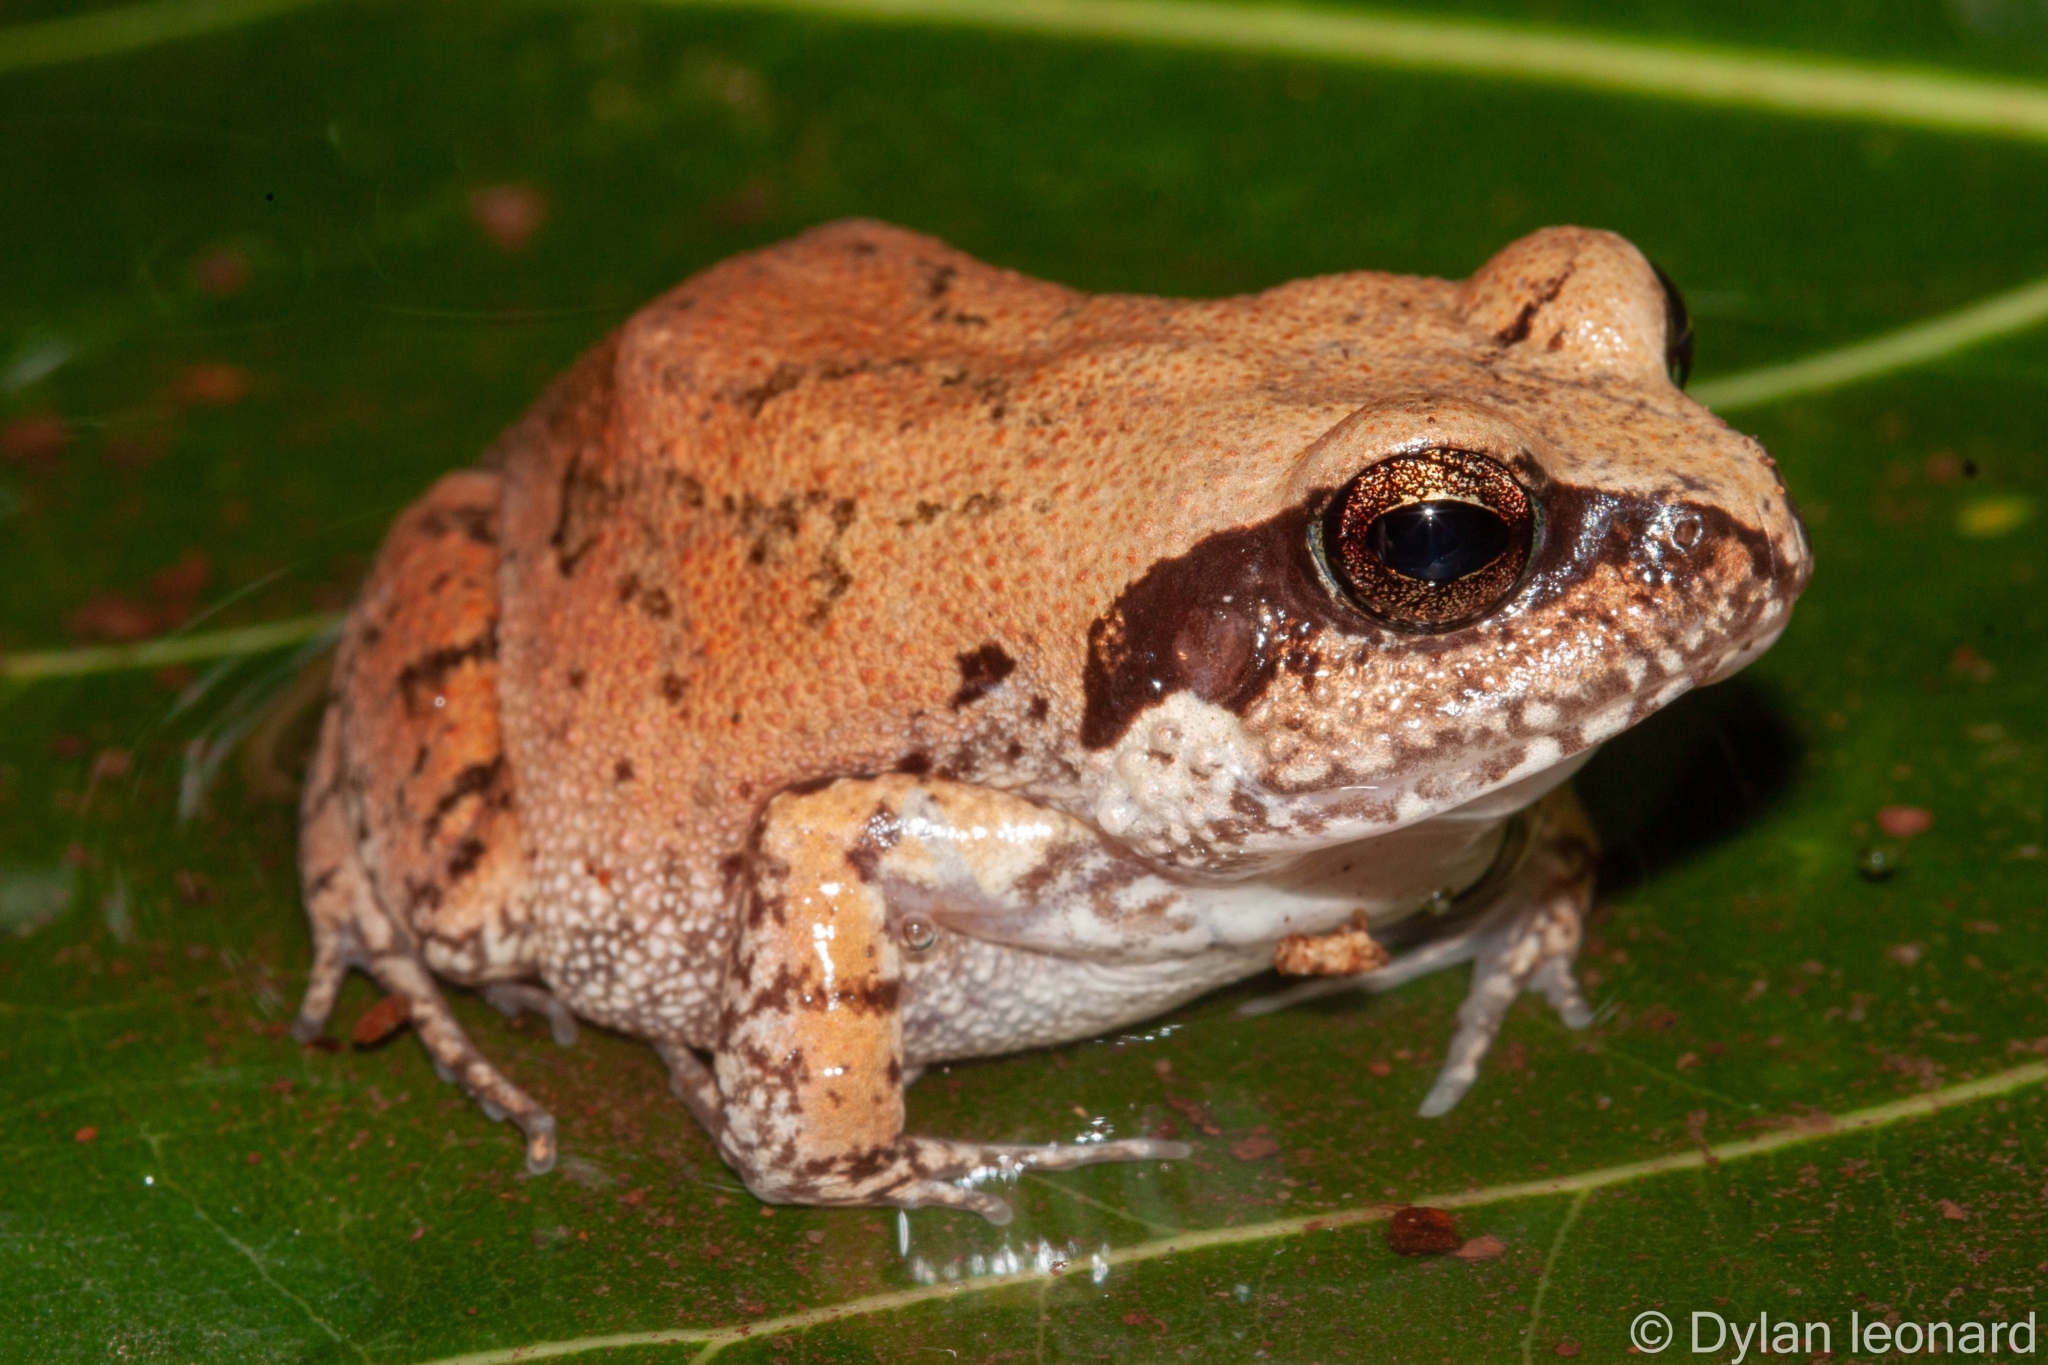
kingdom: Animalia
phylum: Chordata
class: Amphibia
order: Anura
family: Arthroleptidae
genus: Arthroleptis
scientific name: Arthroleptis stenodactylus
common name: Dune squeaker
